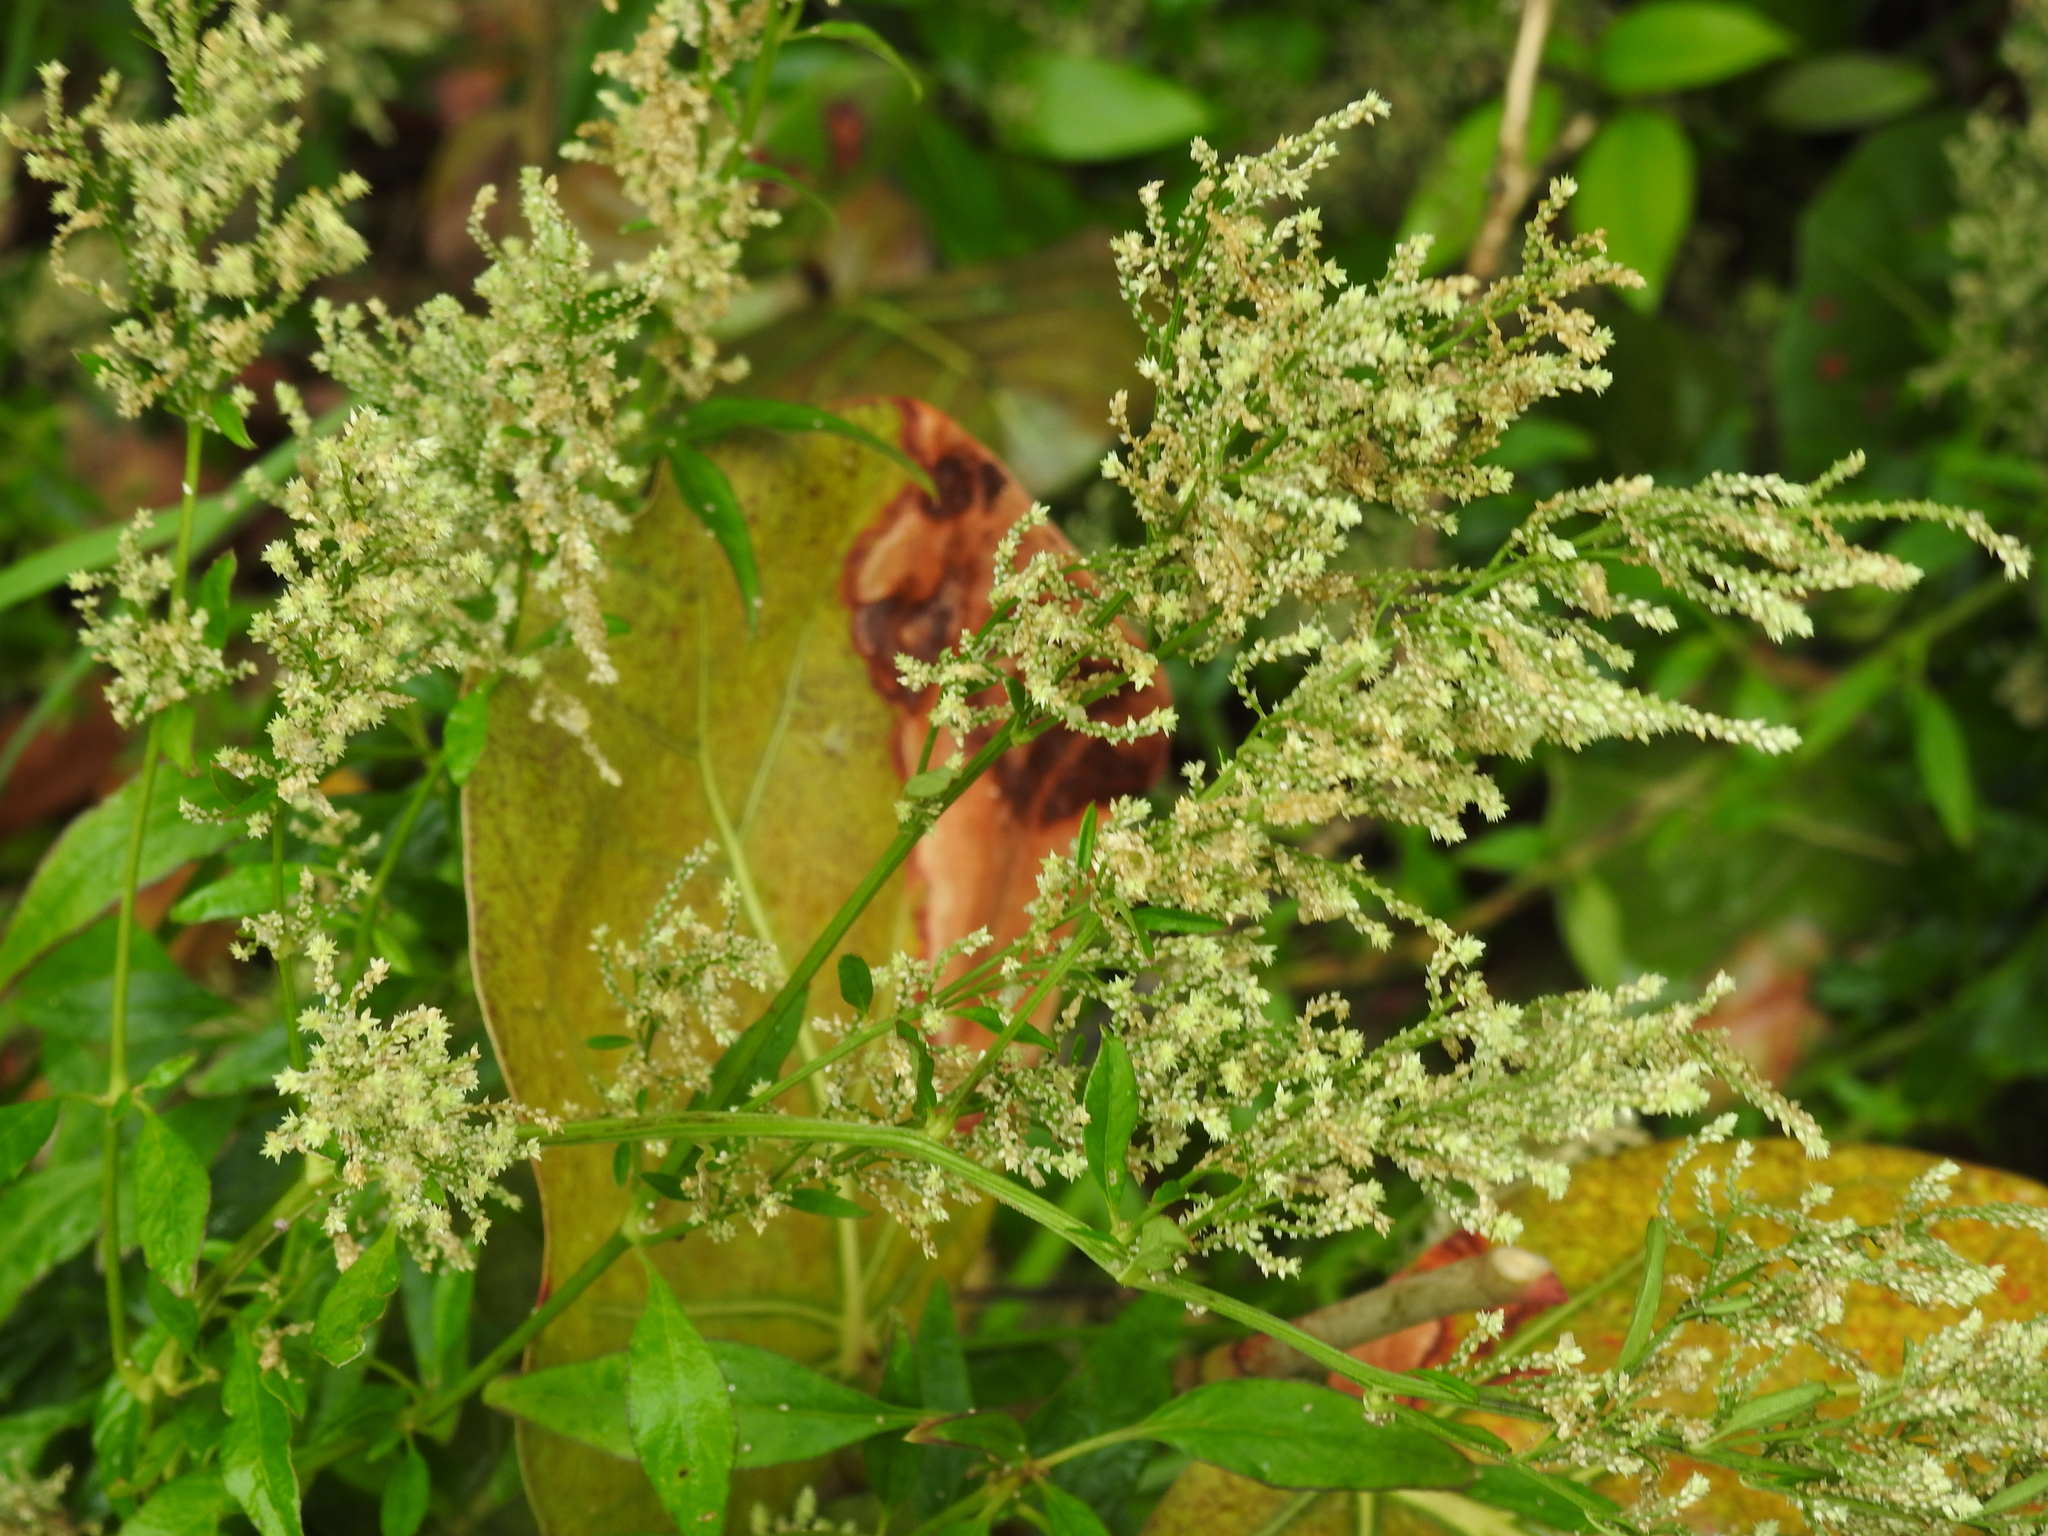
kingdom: Plantae
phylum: Tracheophyta
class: Magnoliopsida
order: Caryophyllales
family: Amaranthaceae
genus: Iresine
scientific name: Iresine diffusa
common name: Juba's-bush
